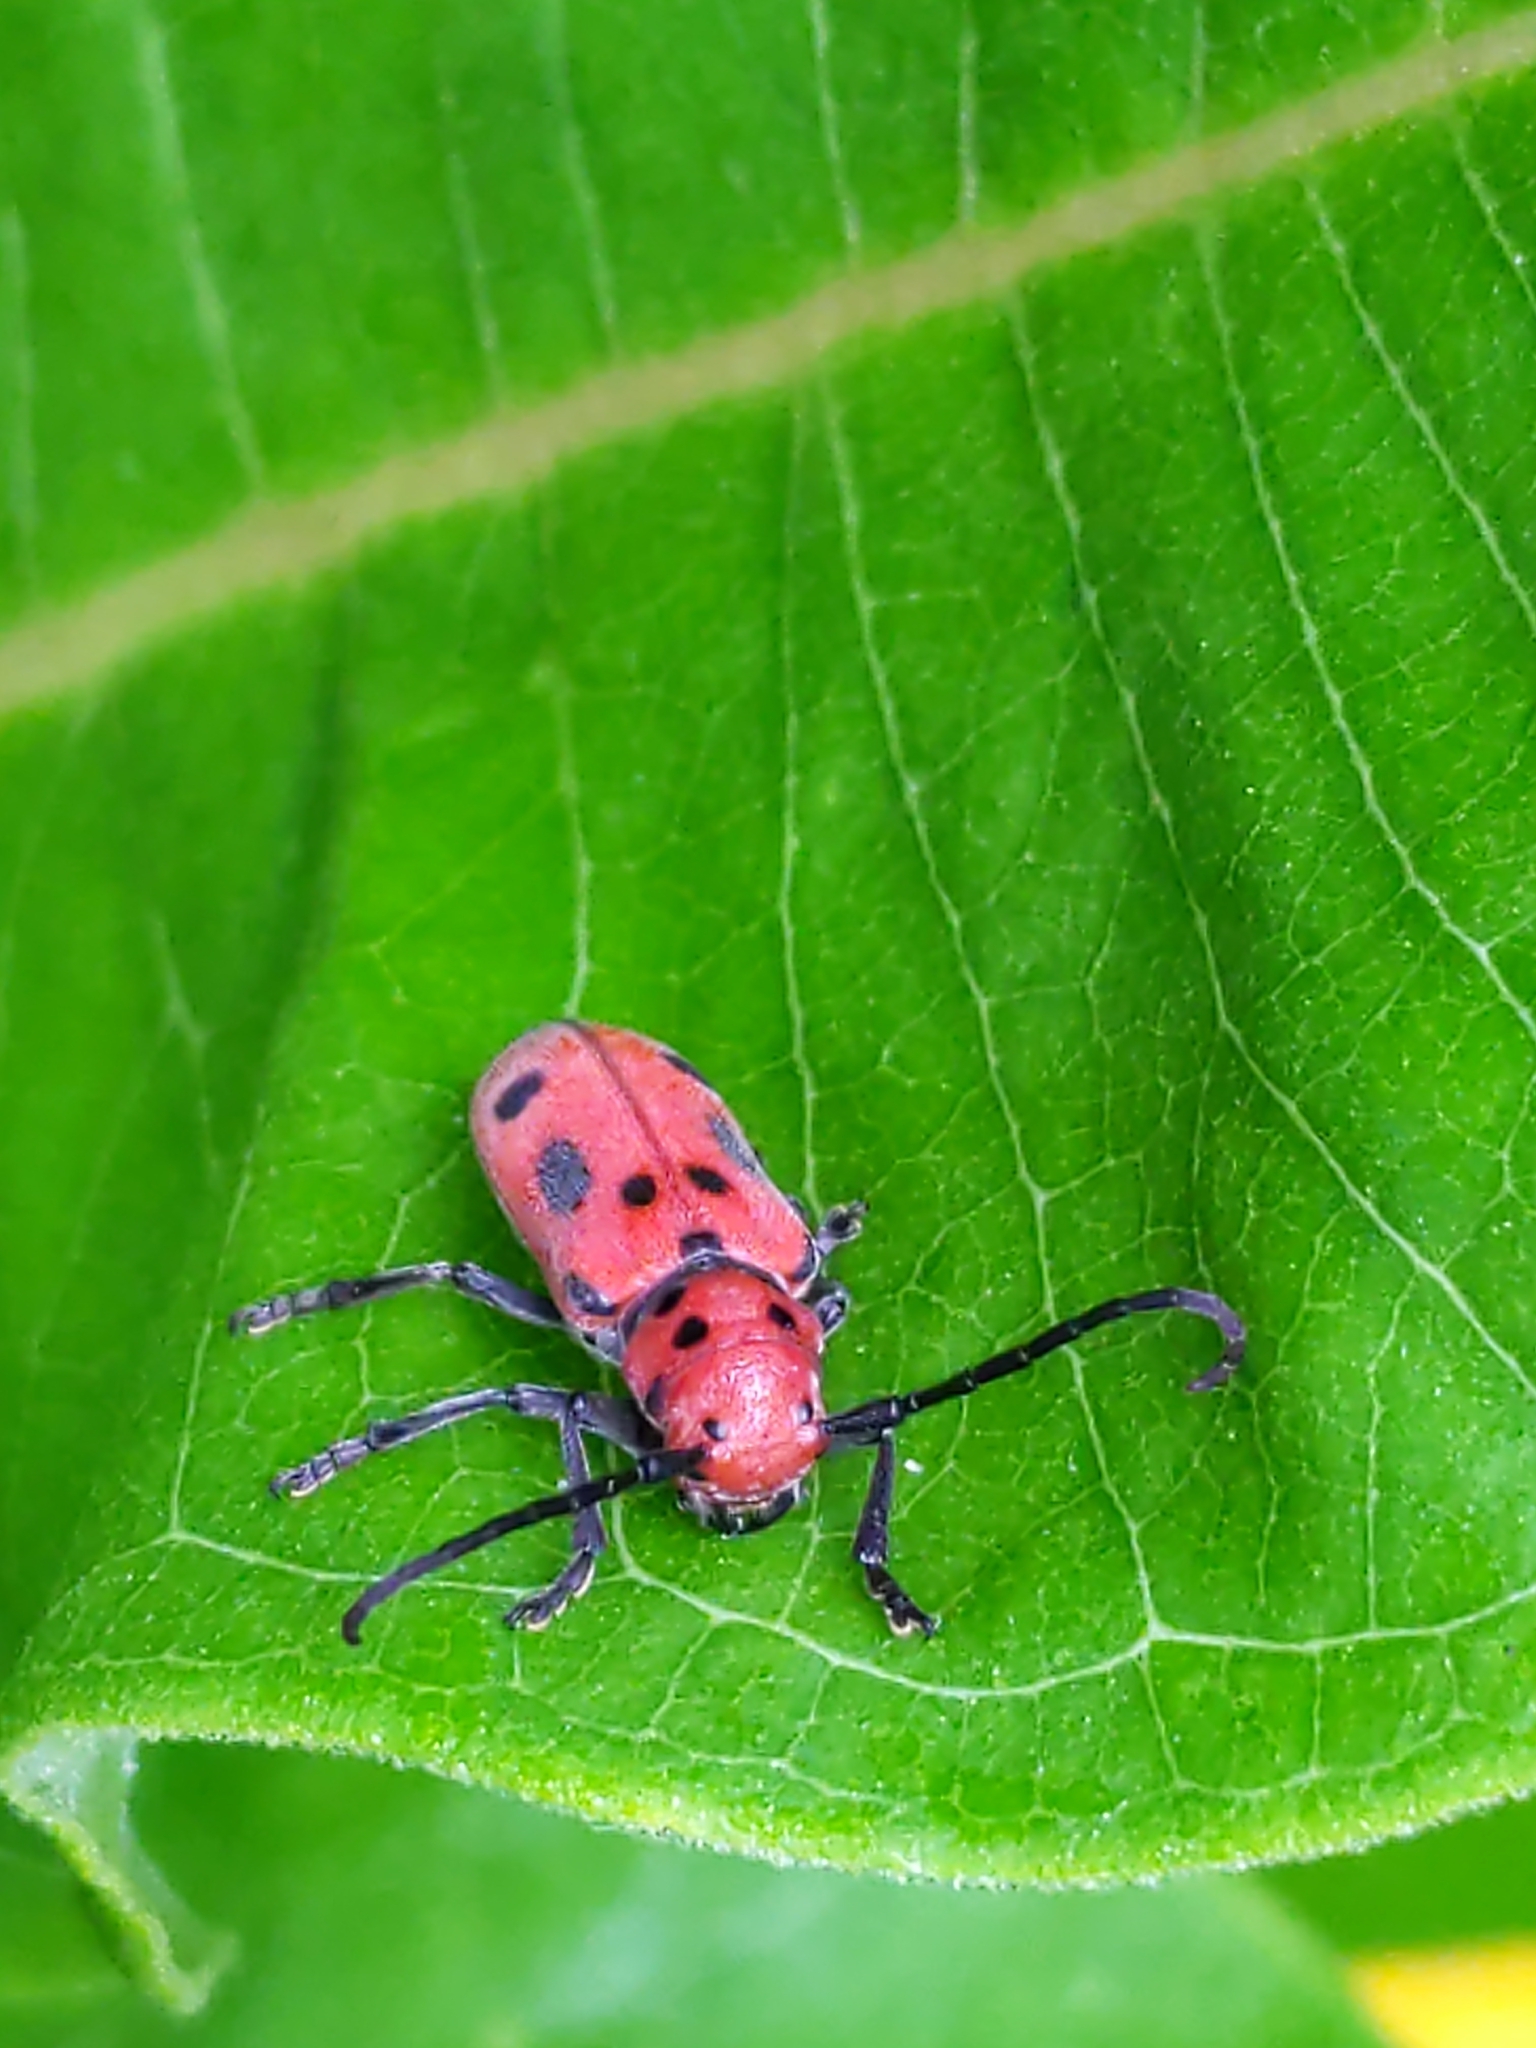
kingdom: Animalia
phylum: Arthropoda
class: Insecta
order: Coleoptera
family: Cerambycidae
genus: Tetraopes
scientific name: Tetraopes tetrophthalmus
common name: Red milkweed beetle
